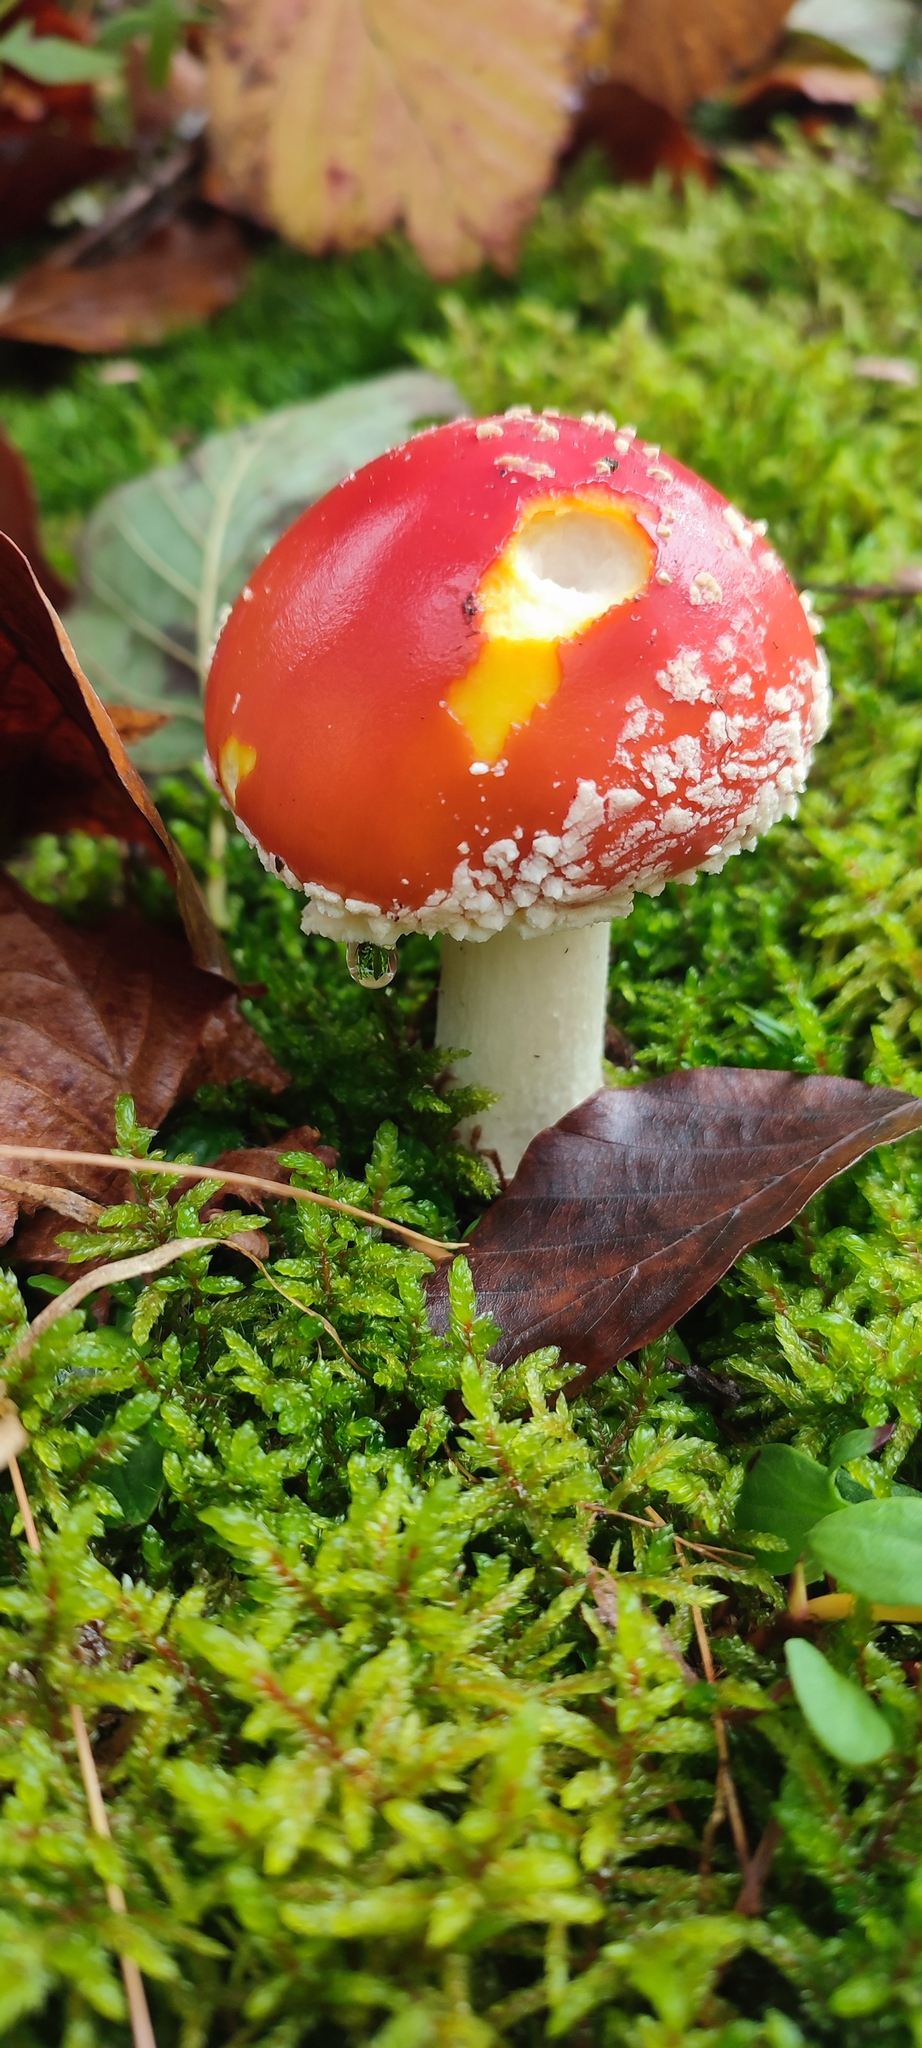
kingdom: Fungi
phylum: Basidiomycota
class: Agaricomycetes
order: Agaricales
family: Amanitaceae
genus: Amanita
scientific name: Amanita muscaria
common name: Fly agaric
